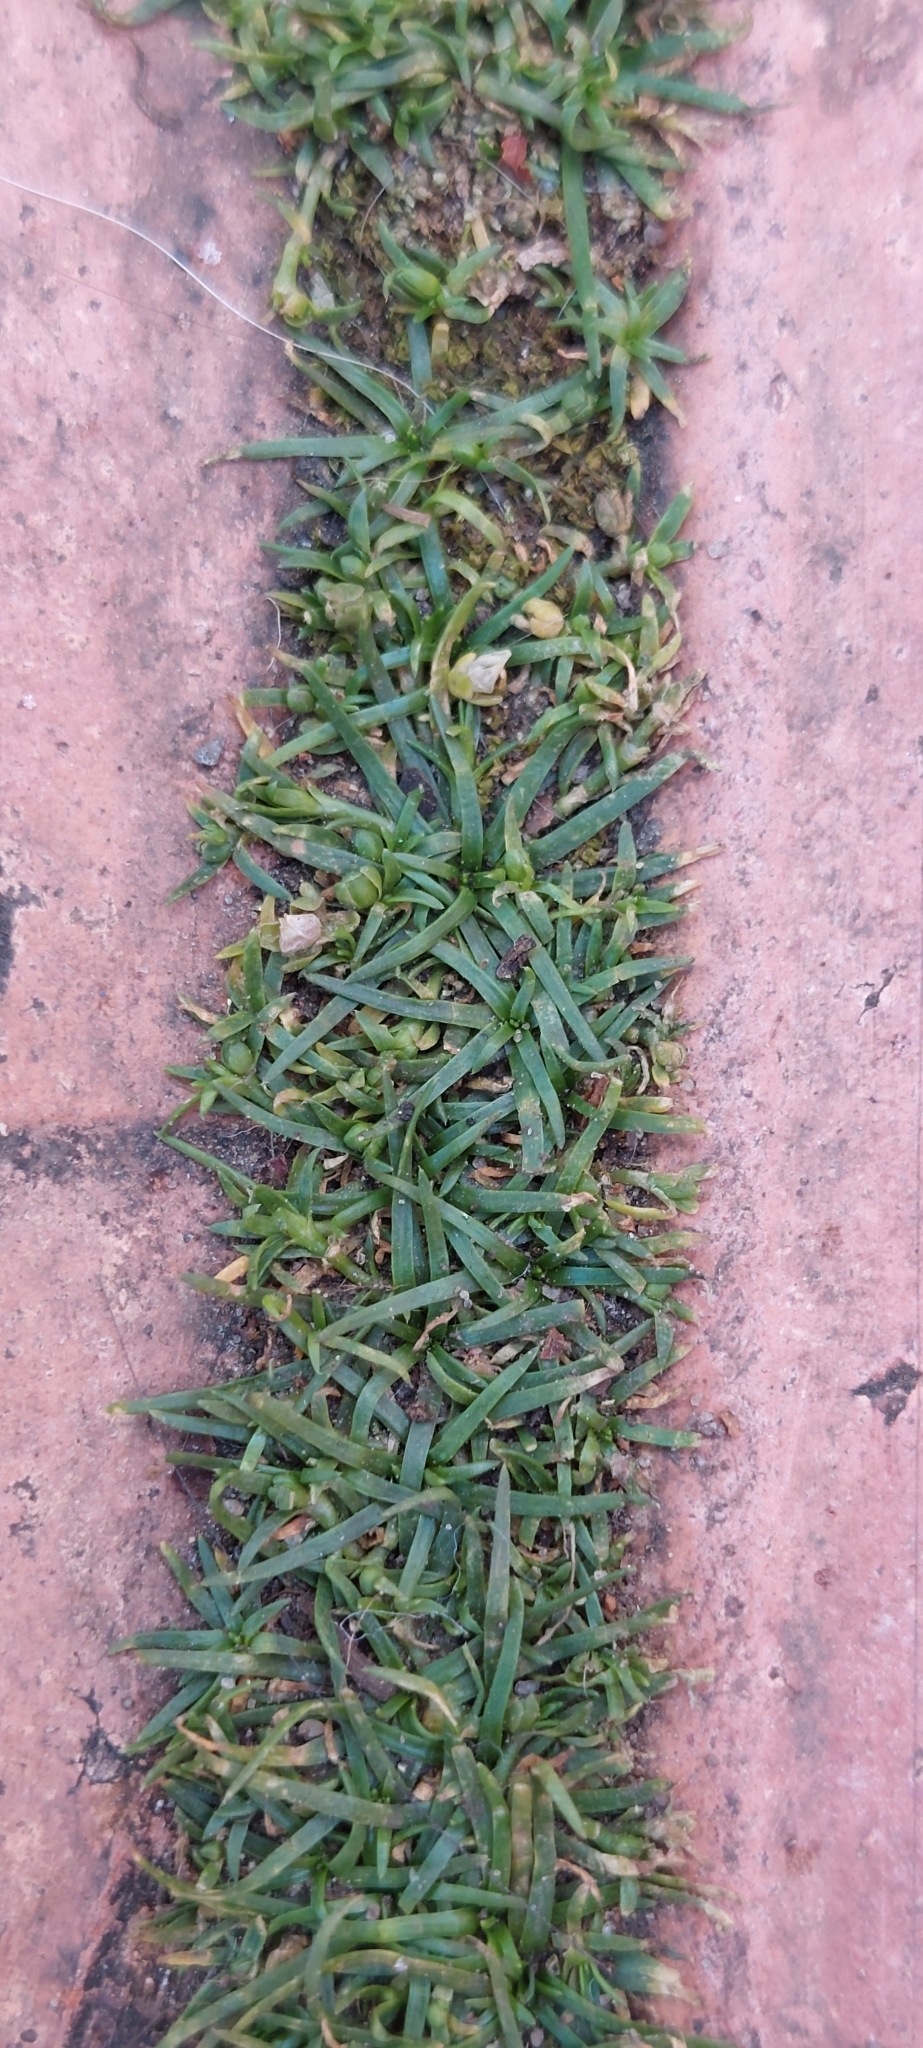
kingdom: Plantae
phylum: Tracheophyta
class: Magnoliopsida
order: Caryophyllales
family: Caryophyllaceae
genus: Sagina
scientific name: Sagina procumbens
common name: Procumbent pearlwort
